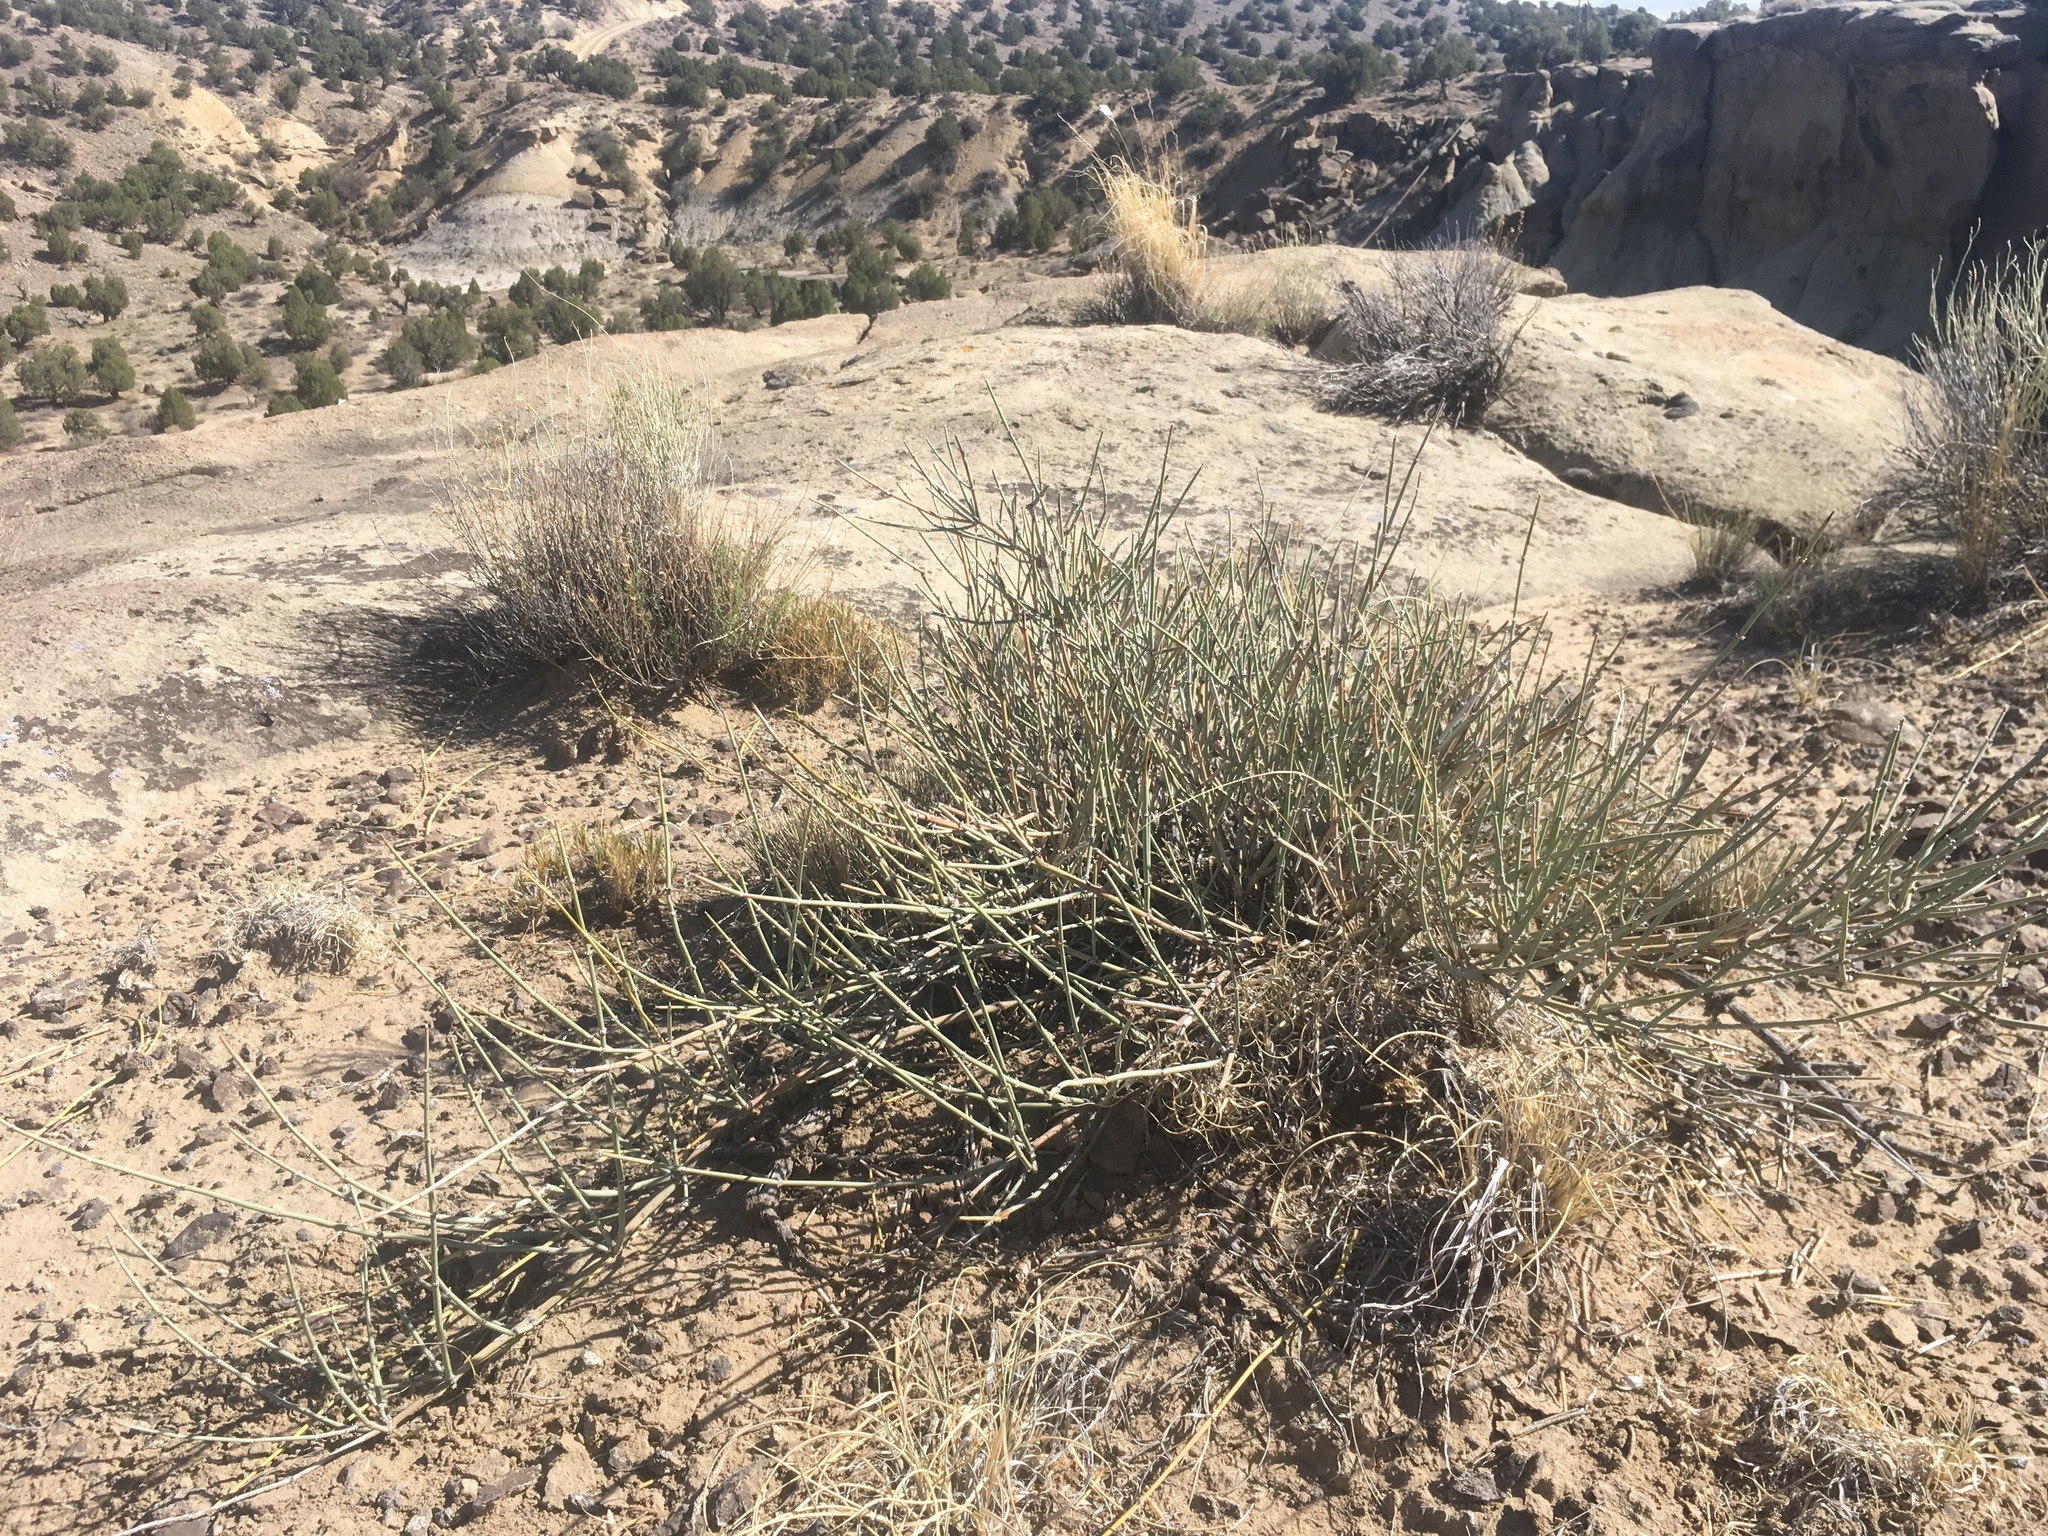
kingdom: Plantae
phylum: Tracheophyta
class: Gnetopsida
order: Ephedrales
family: Ephedraceae
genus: Ephedra
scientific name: Ephedra torreyana
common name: Torrey ephedra
